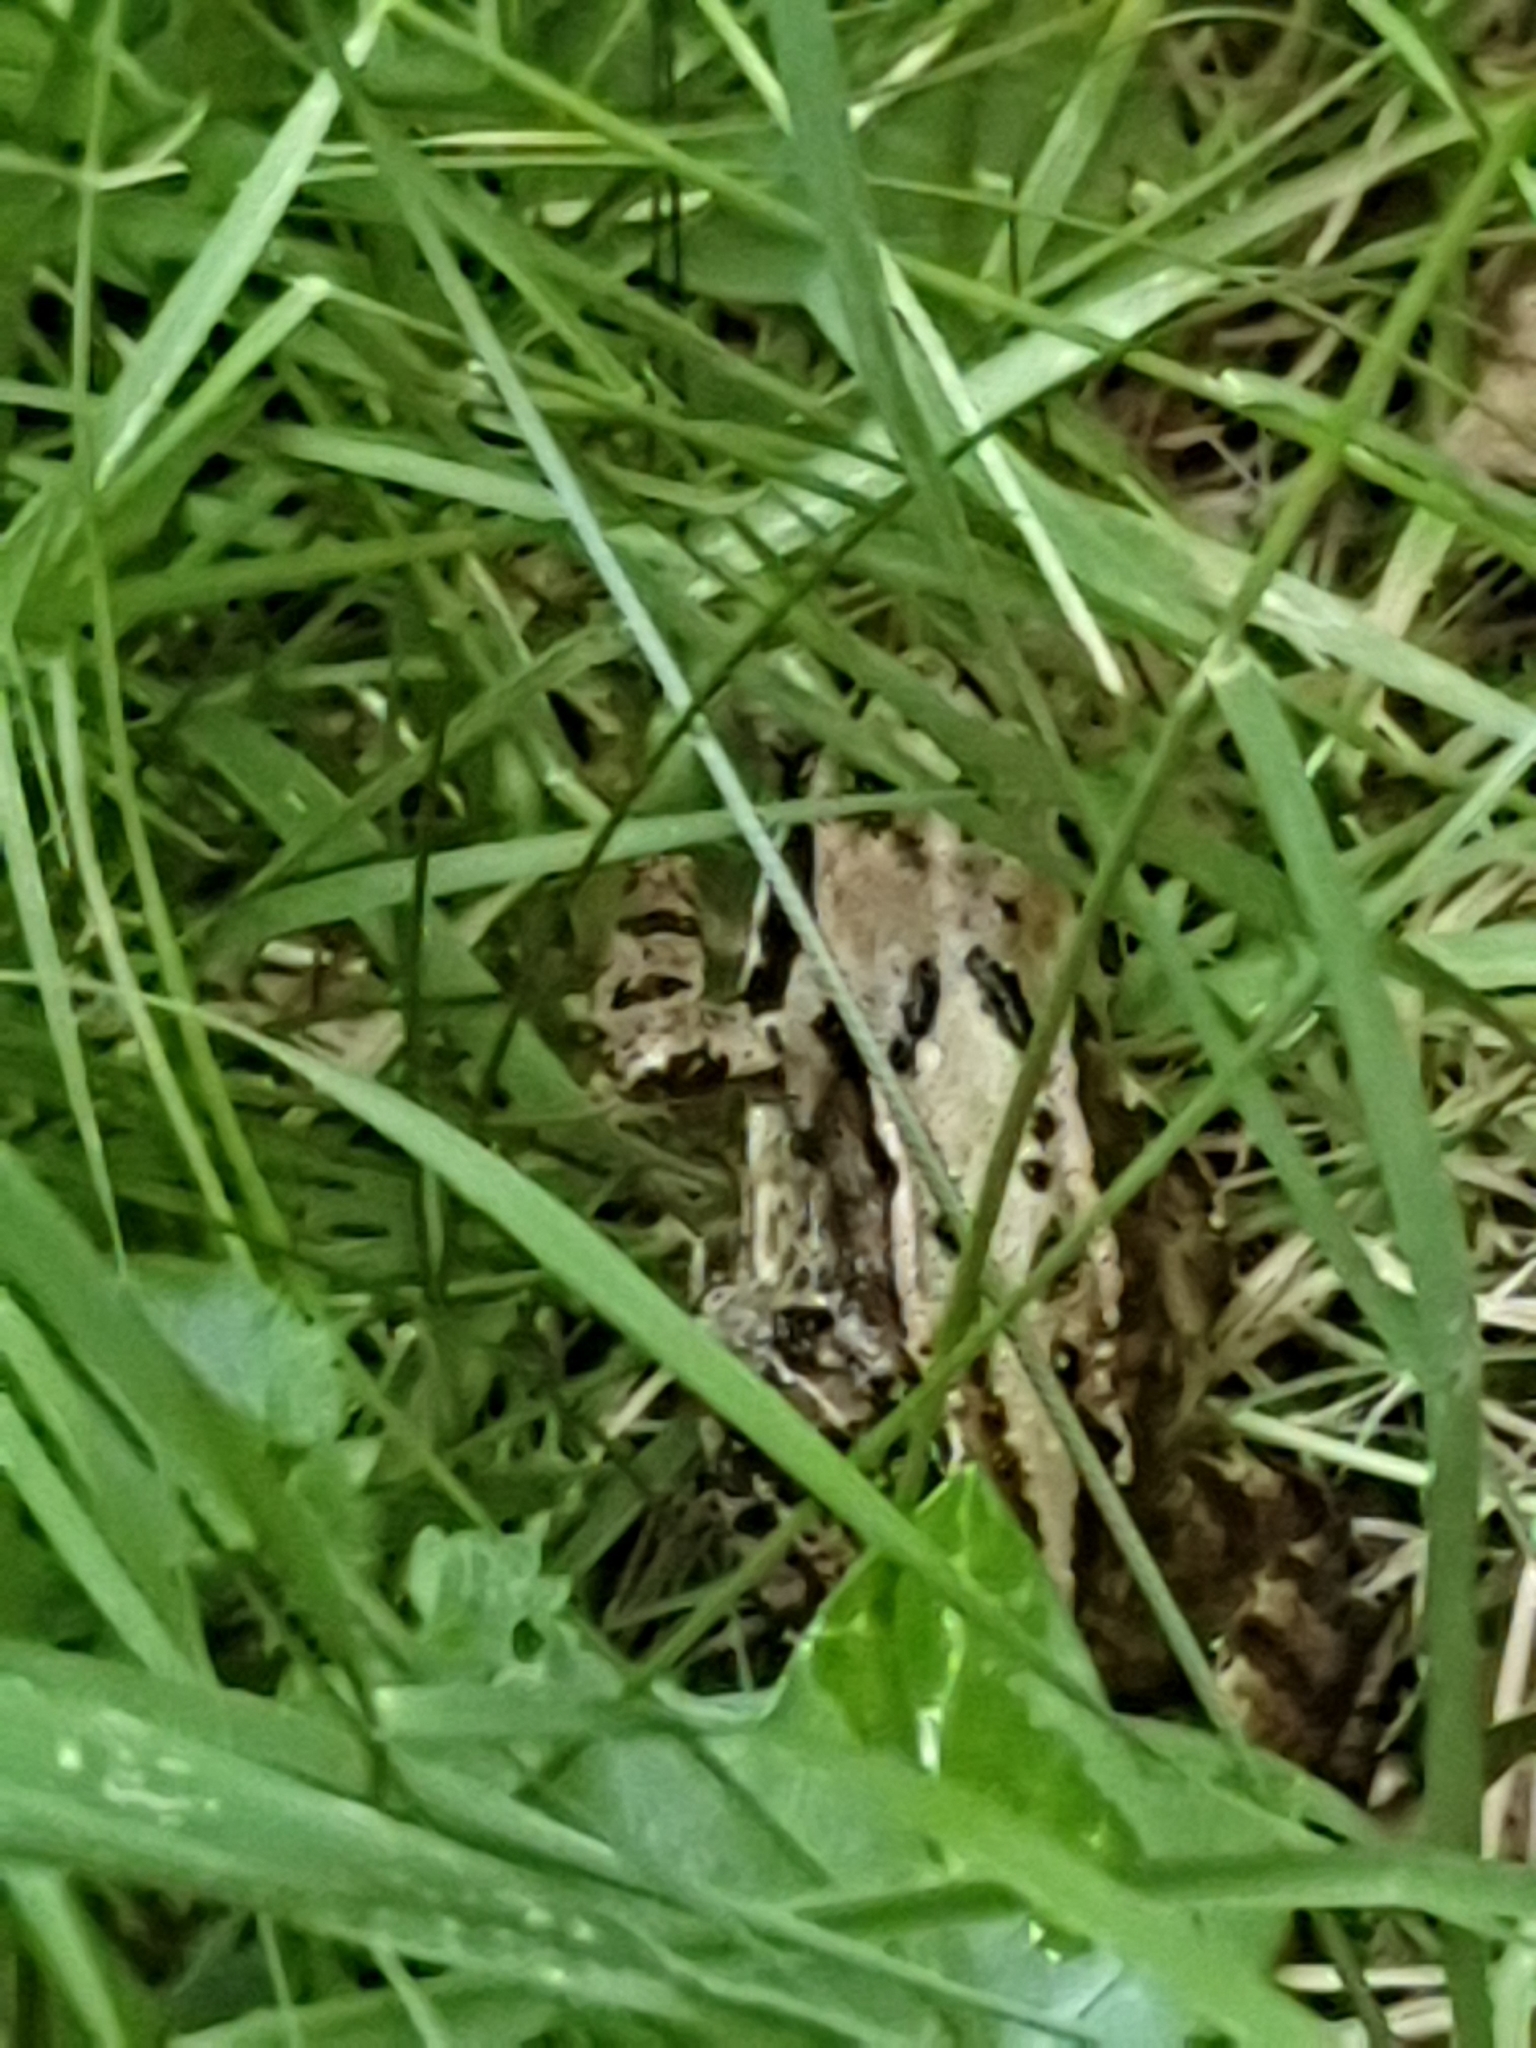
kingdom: Animalia
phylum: Chordata
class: Amphibia
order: Anura
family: Ranidae
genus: Rana
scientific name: Rana temporaria
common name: Common frog
